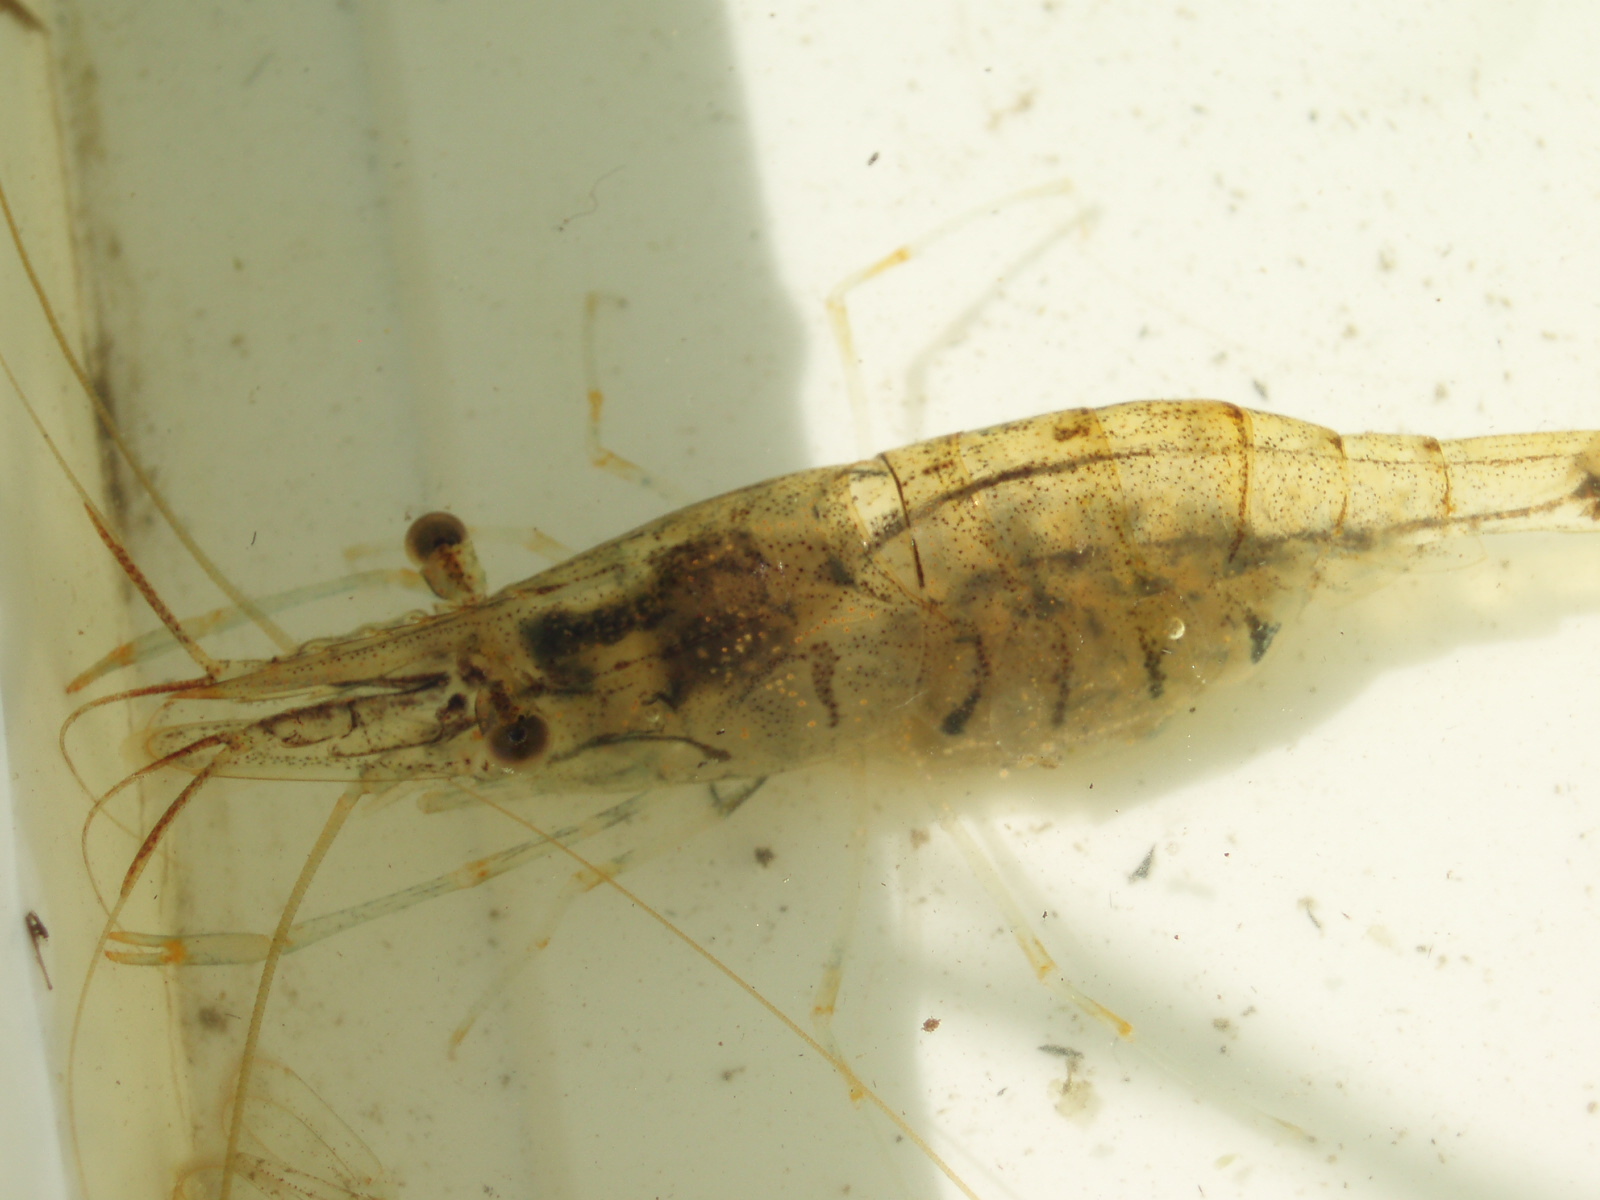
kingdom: Animalia
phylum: Arthropoda
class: Malacostraca
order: Decapoda
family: Palaemonidae
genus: Palaemon
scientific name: Palaemon varians
